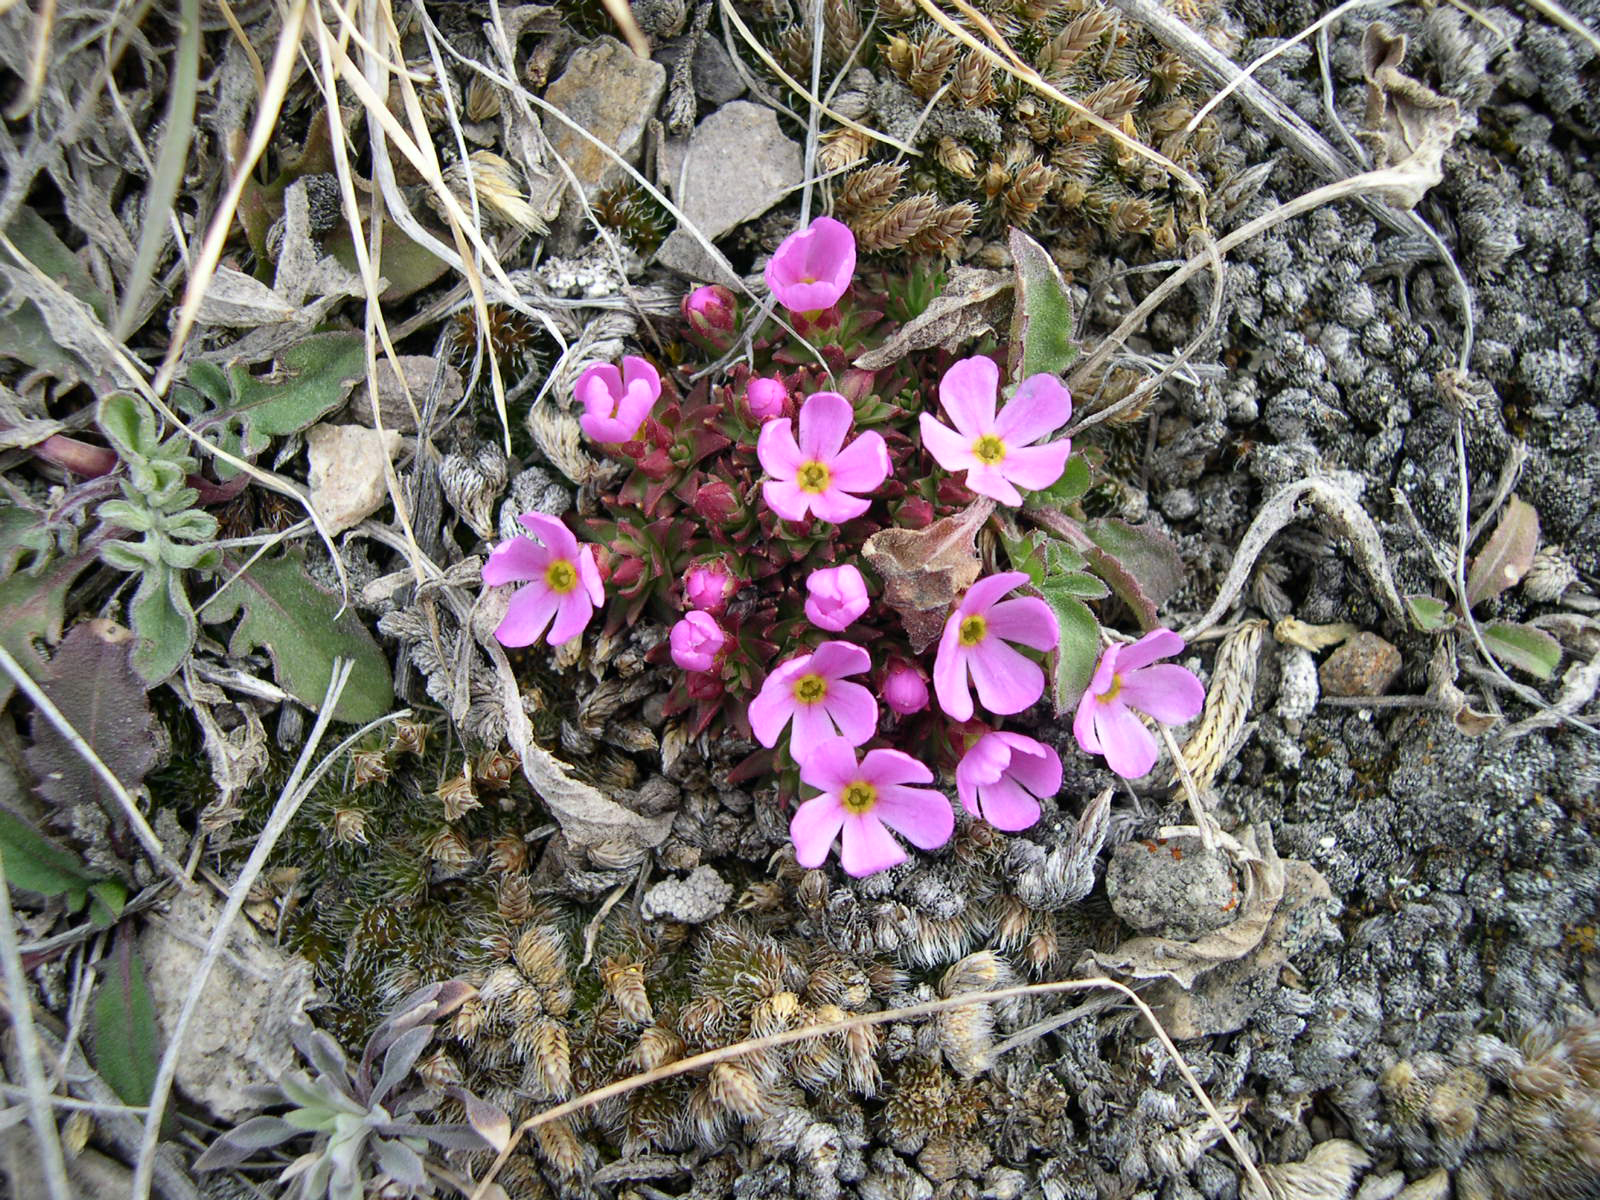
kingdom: Plantae
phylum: Tracheophyta
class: Magnoliopsida
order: Ericales
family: Primulaceae
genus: Androsace
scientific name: Androsace montana
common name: Rocky mountain dwarf-primrose
